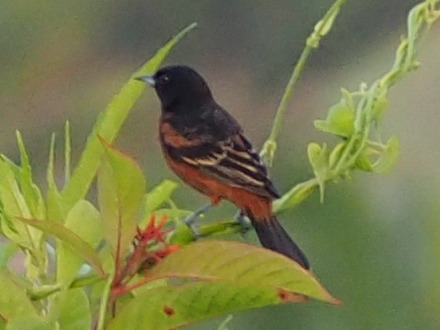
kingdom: Animalia
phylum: Chordata
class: Aves
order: Passeriformes
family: Icteridae
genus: Icterus
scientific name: Icterus spurius
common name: Orchard oriole
